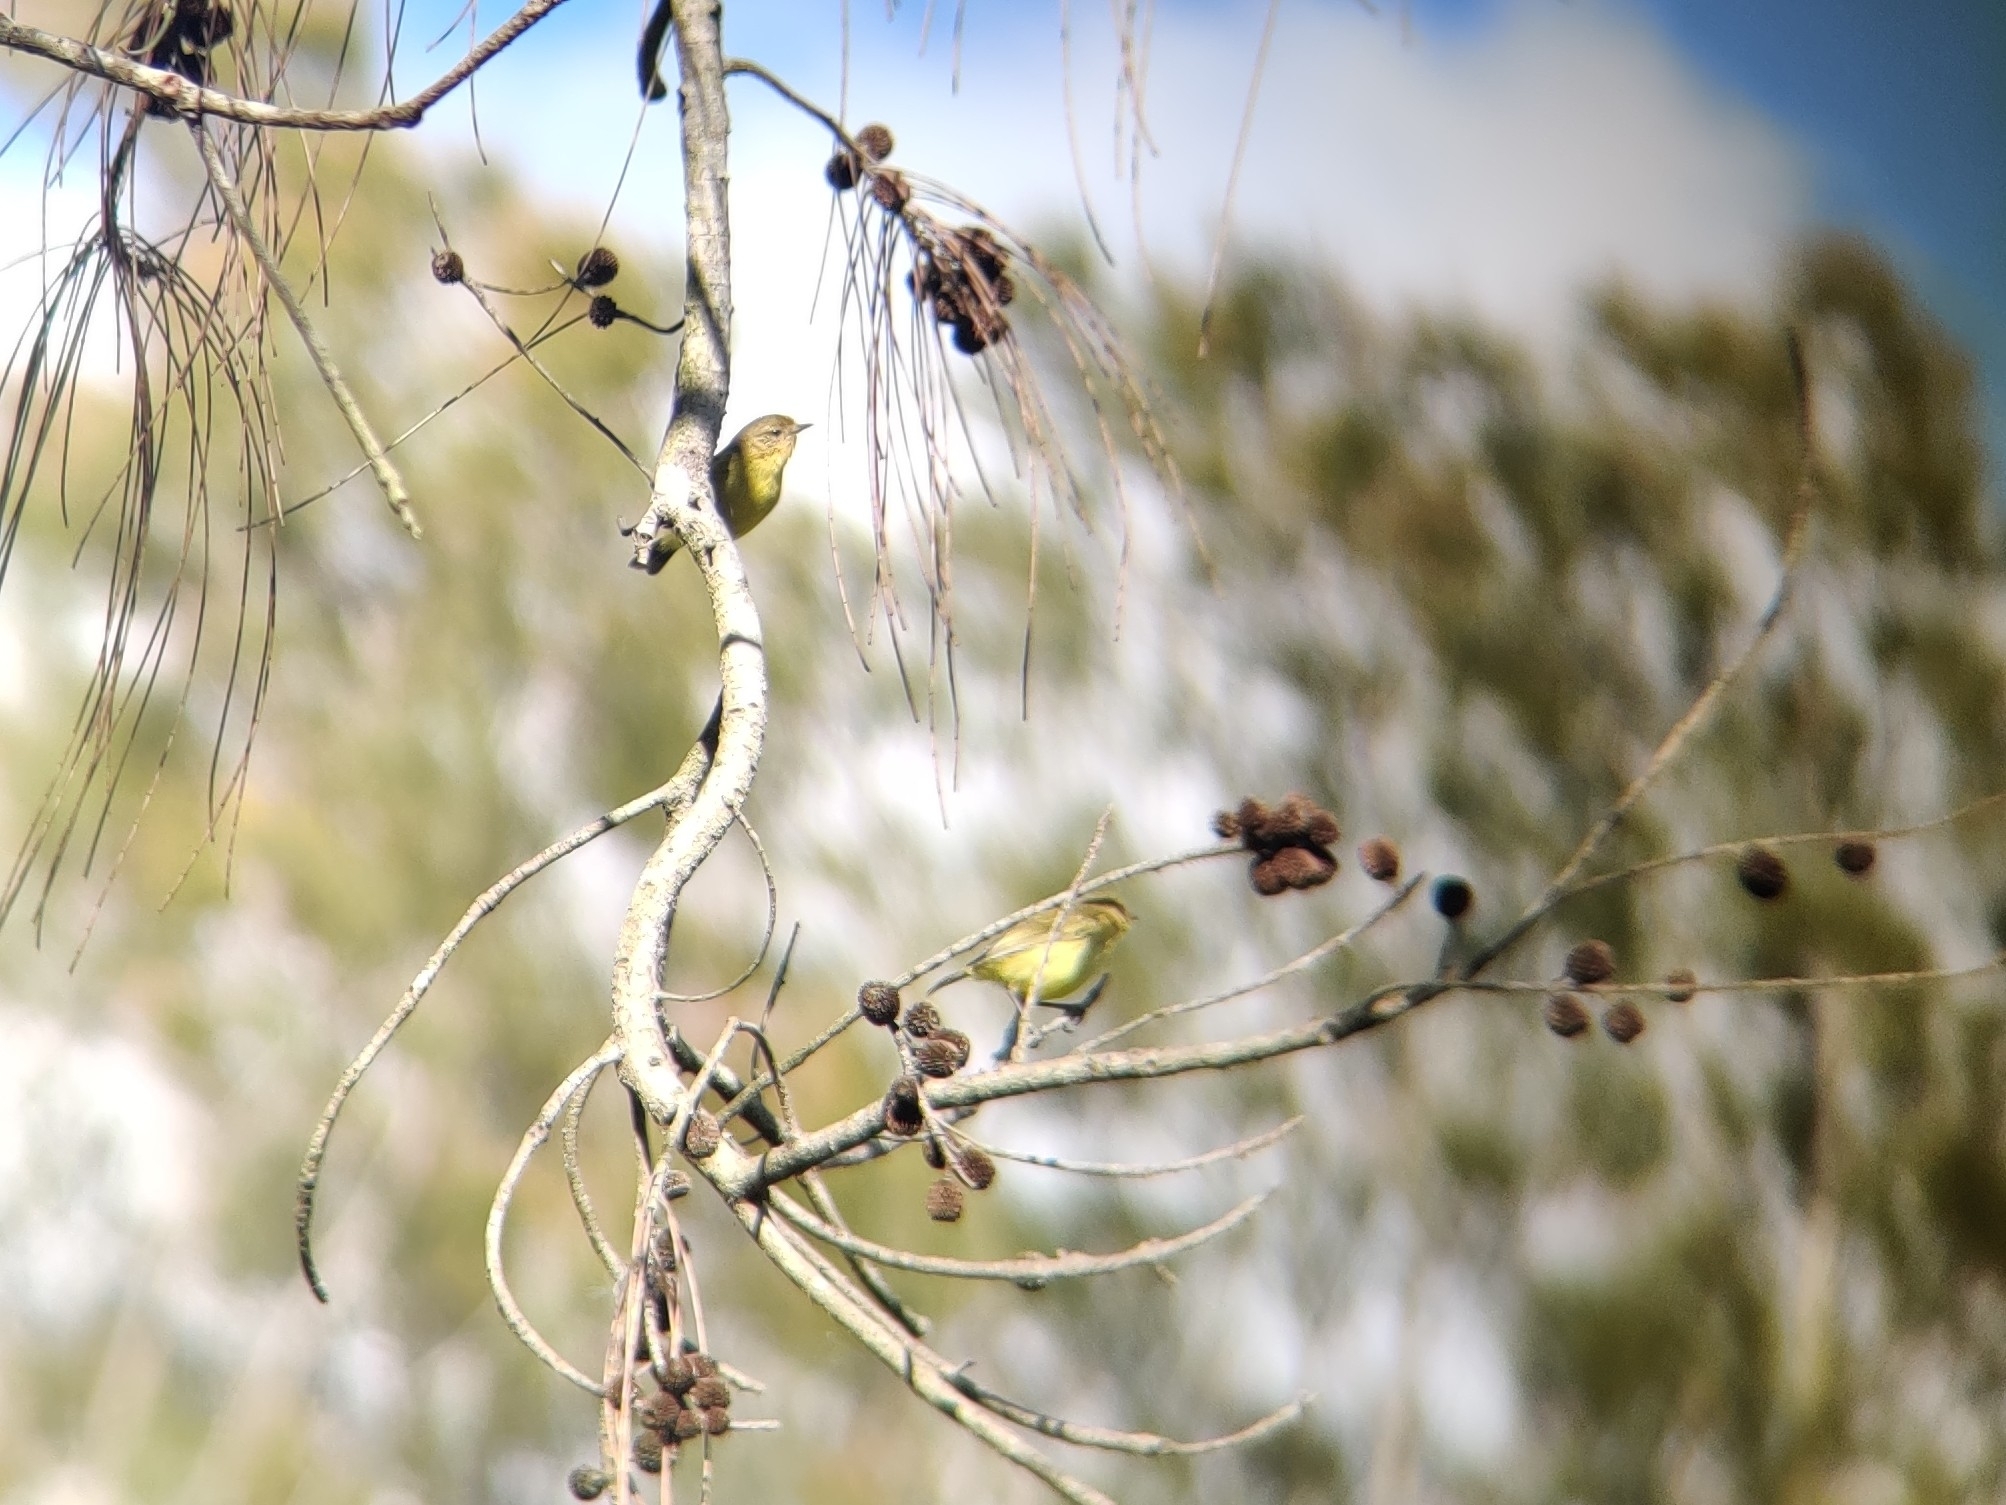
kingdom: Animalia
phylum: Chordata
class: Aves
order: Passeriformes
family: Acanthizidae
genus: Acanthiza
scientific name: Acanthiza nana
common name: Yellow thornbill
